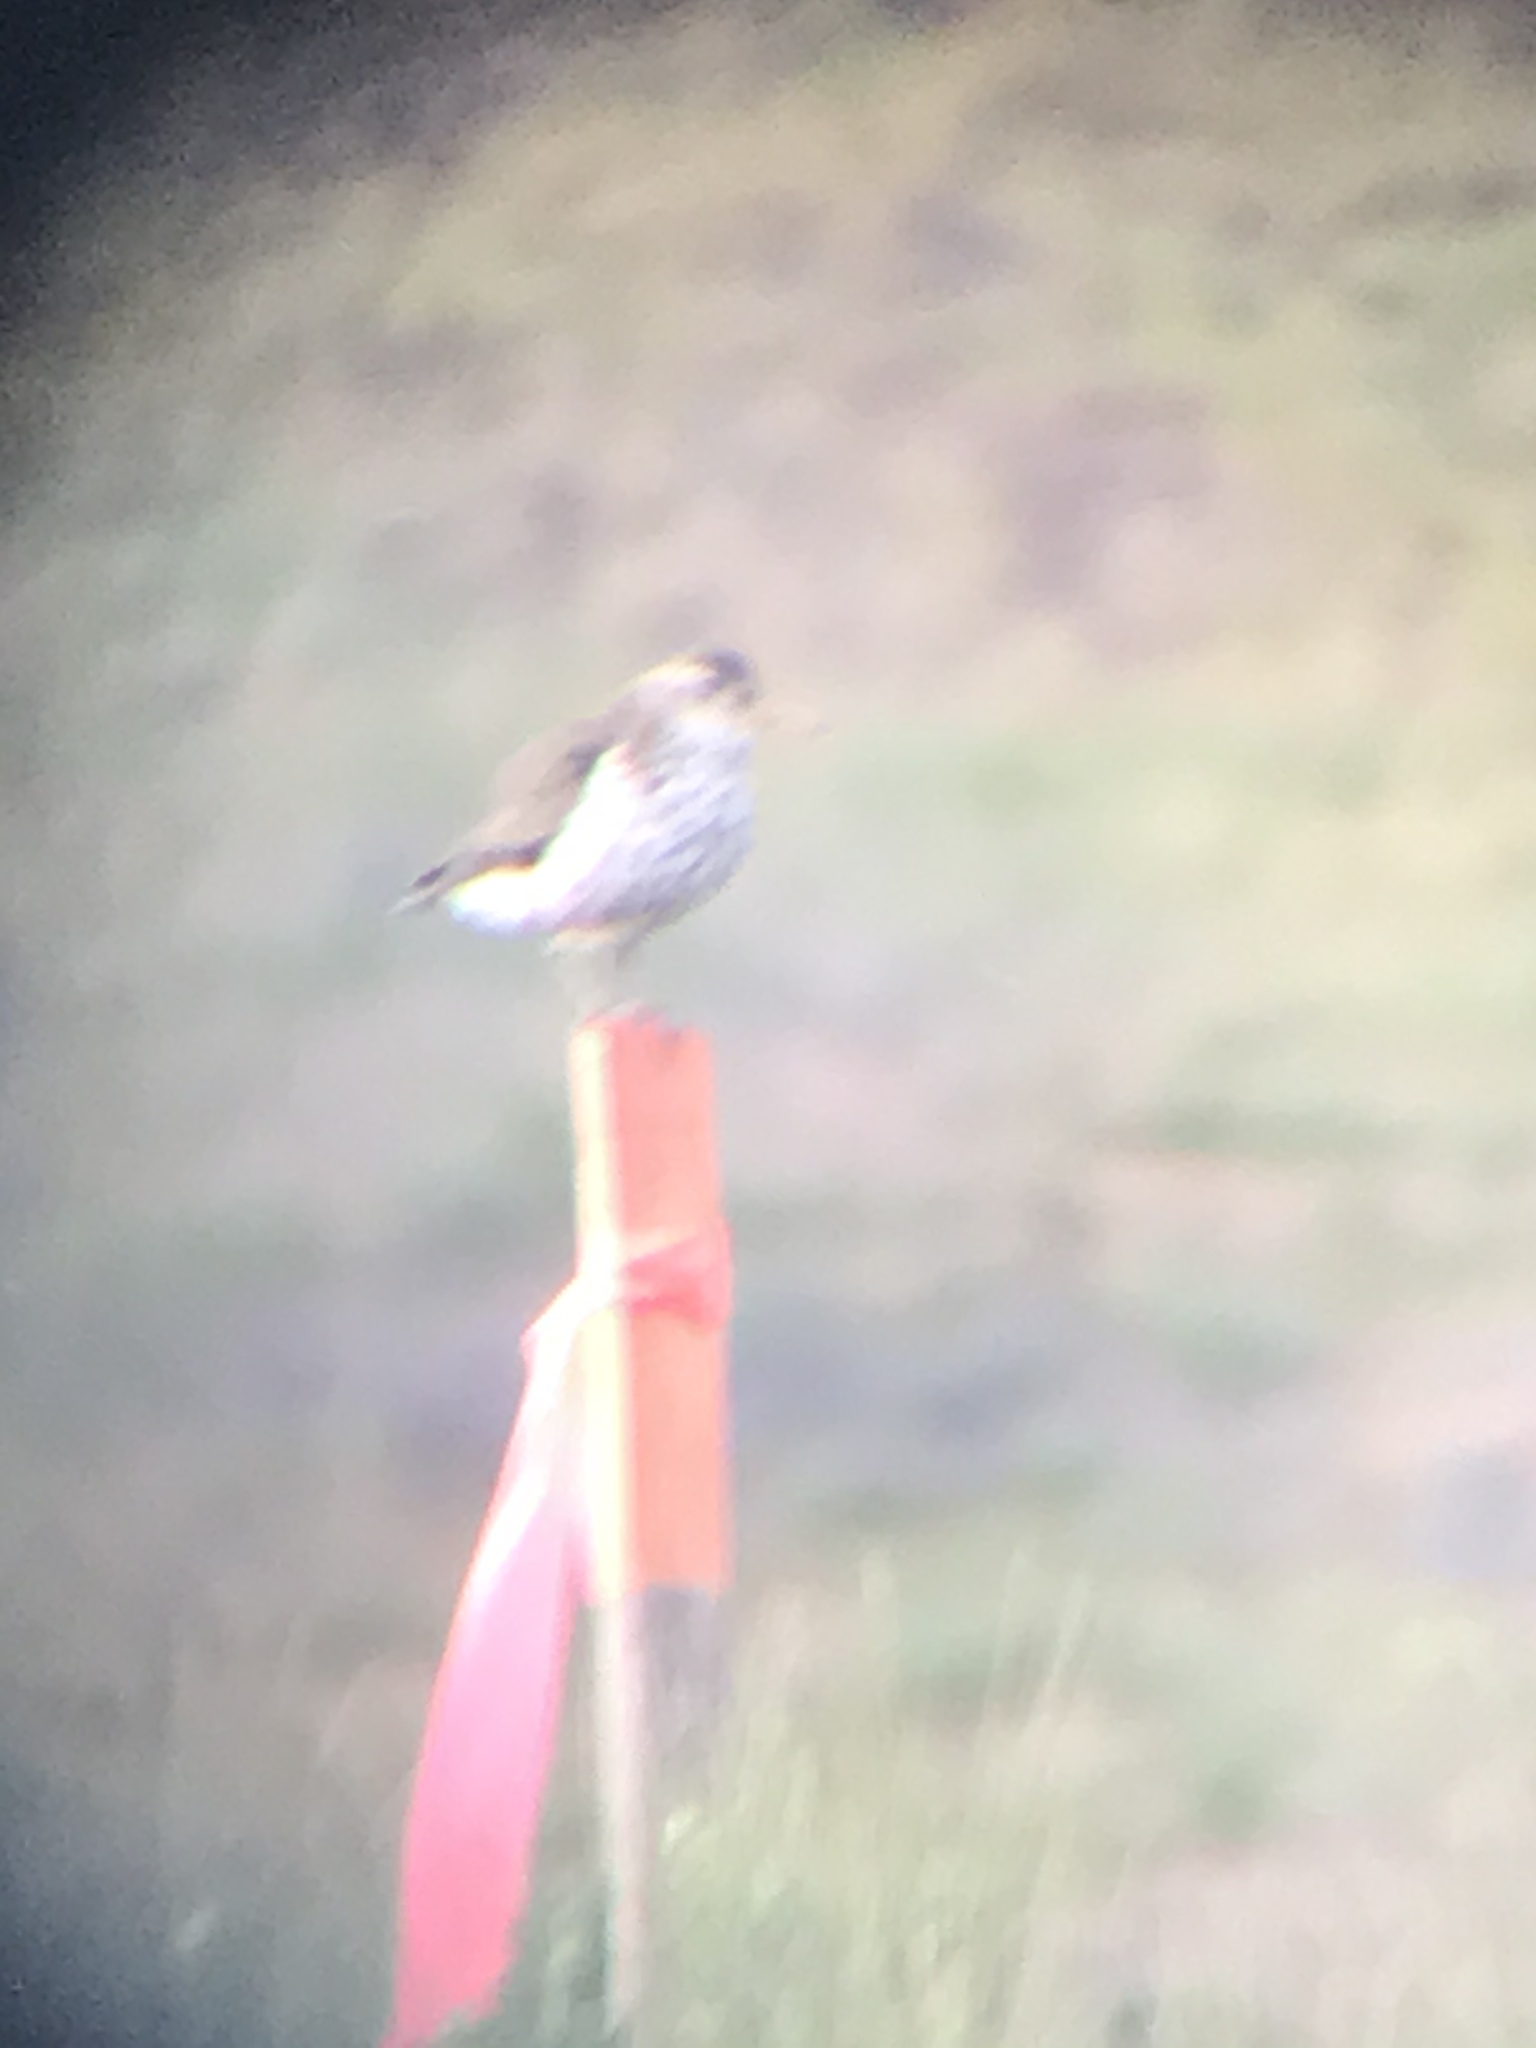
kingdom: Animalia
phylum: Chordata
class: Aves
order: Charadriiformes
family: Scolopacidae
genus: Actitis
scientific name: Actitis macularius
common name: Spotted sandpiper
